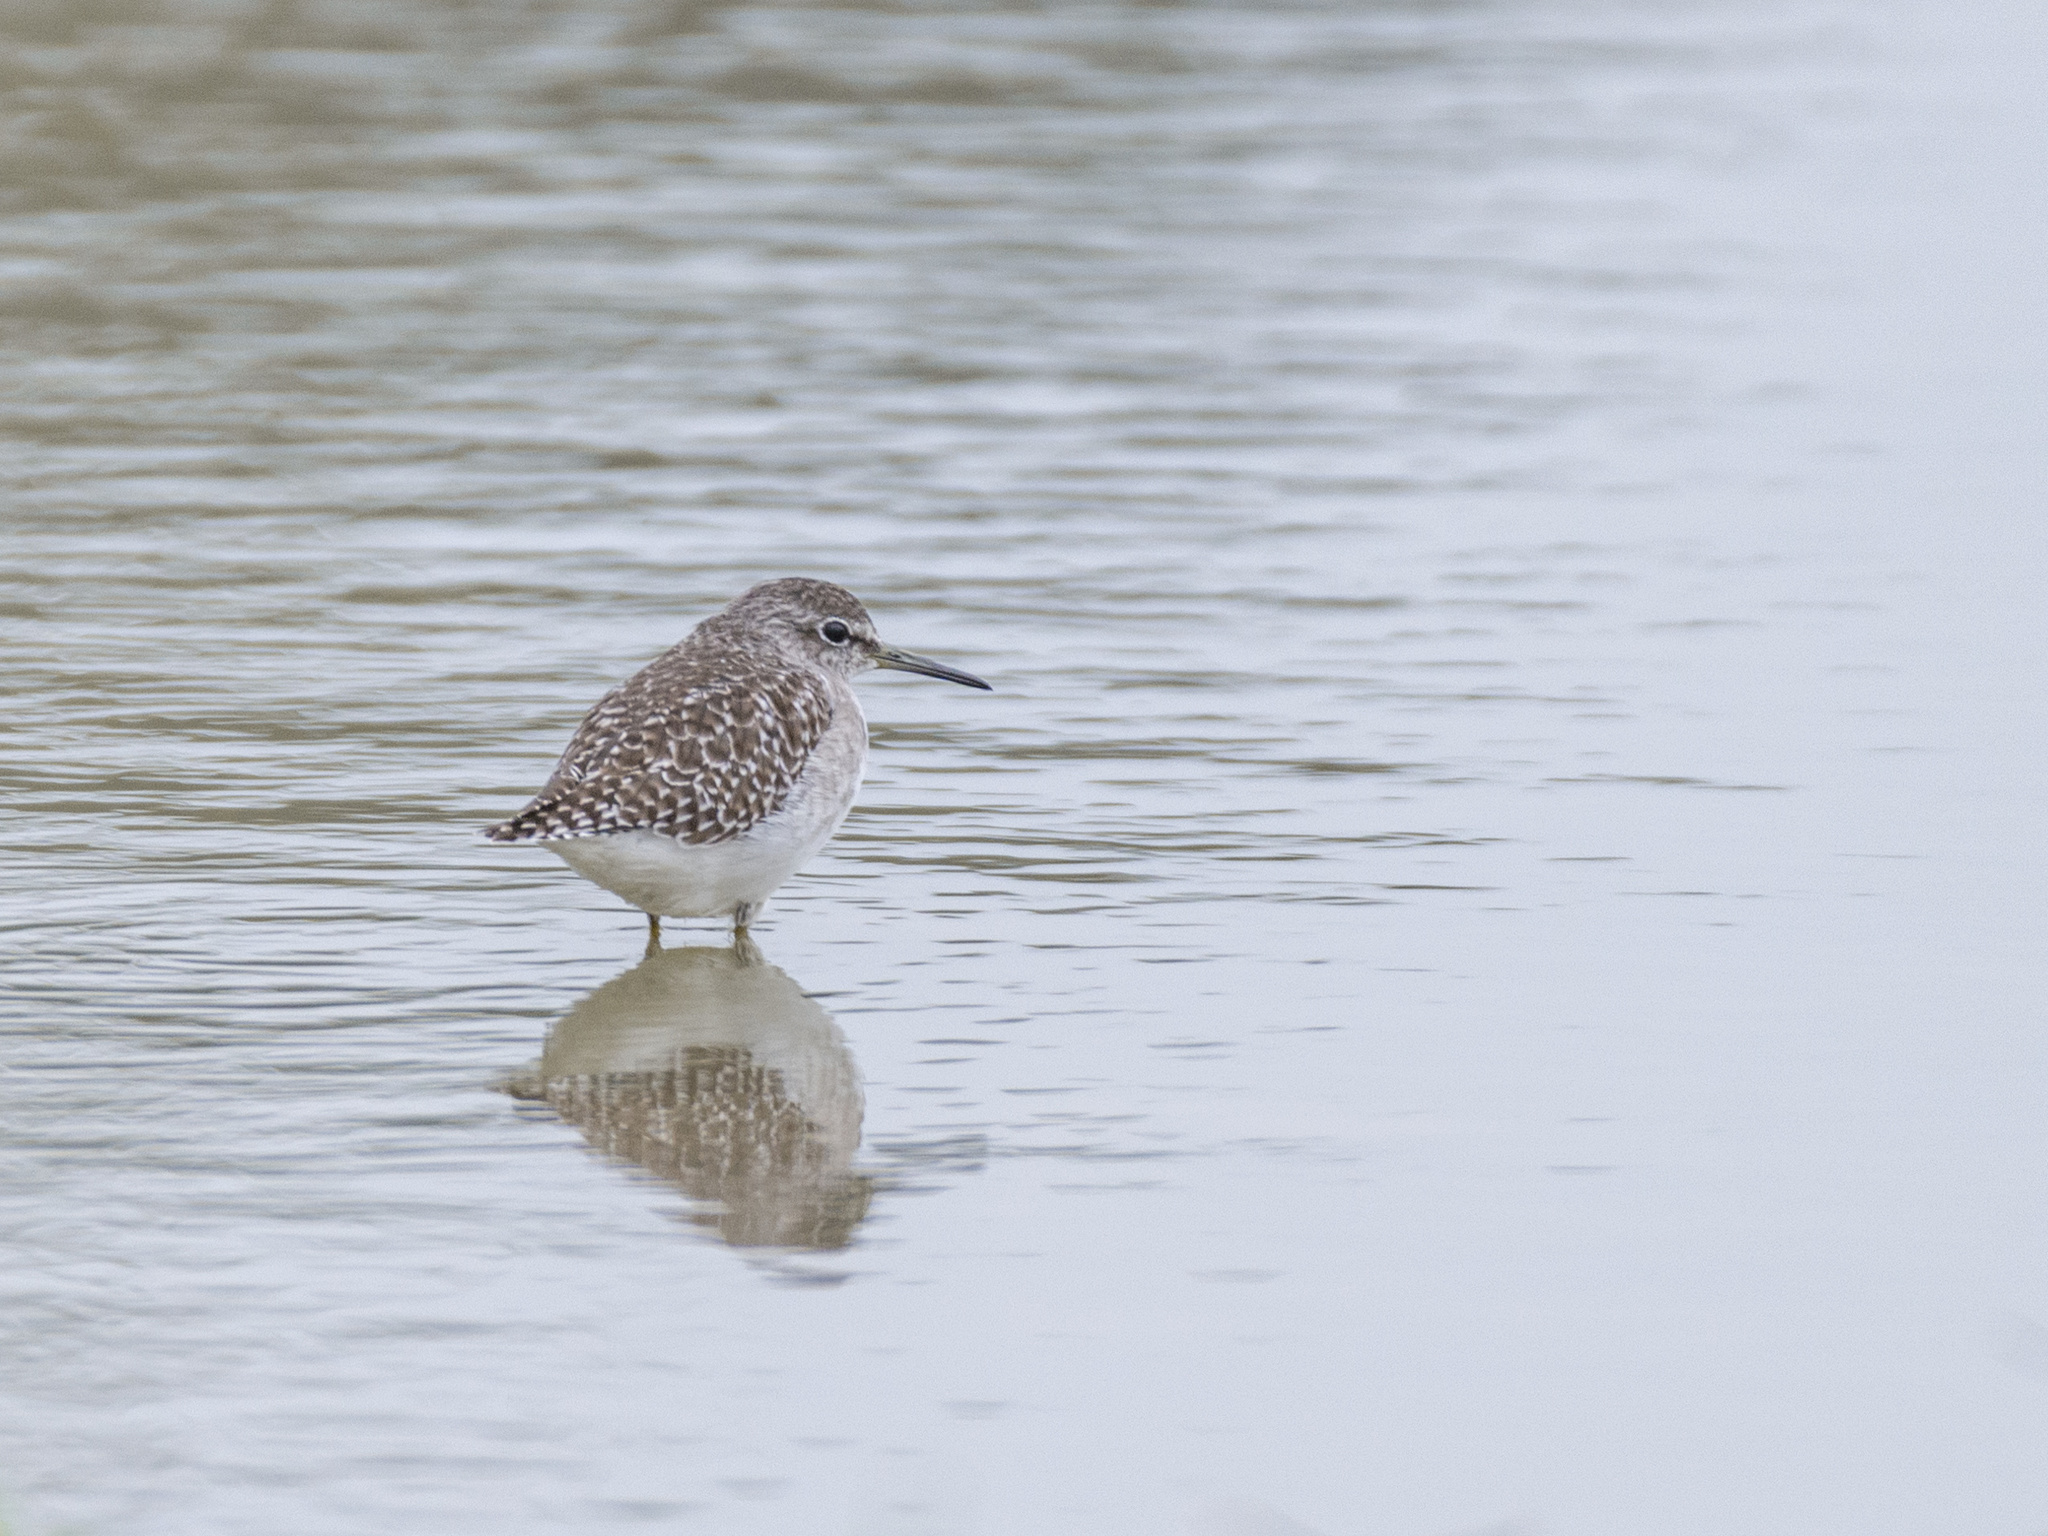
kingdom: Animalia
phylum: Chordata
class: Aves
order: Charadriiformes
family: Scolopacidae
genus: Tringa
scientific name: Tringa glareola
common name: Wood sandpiper
